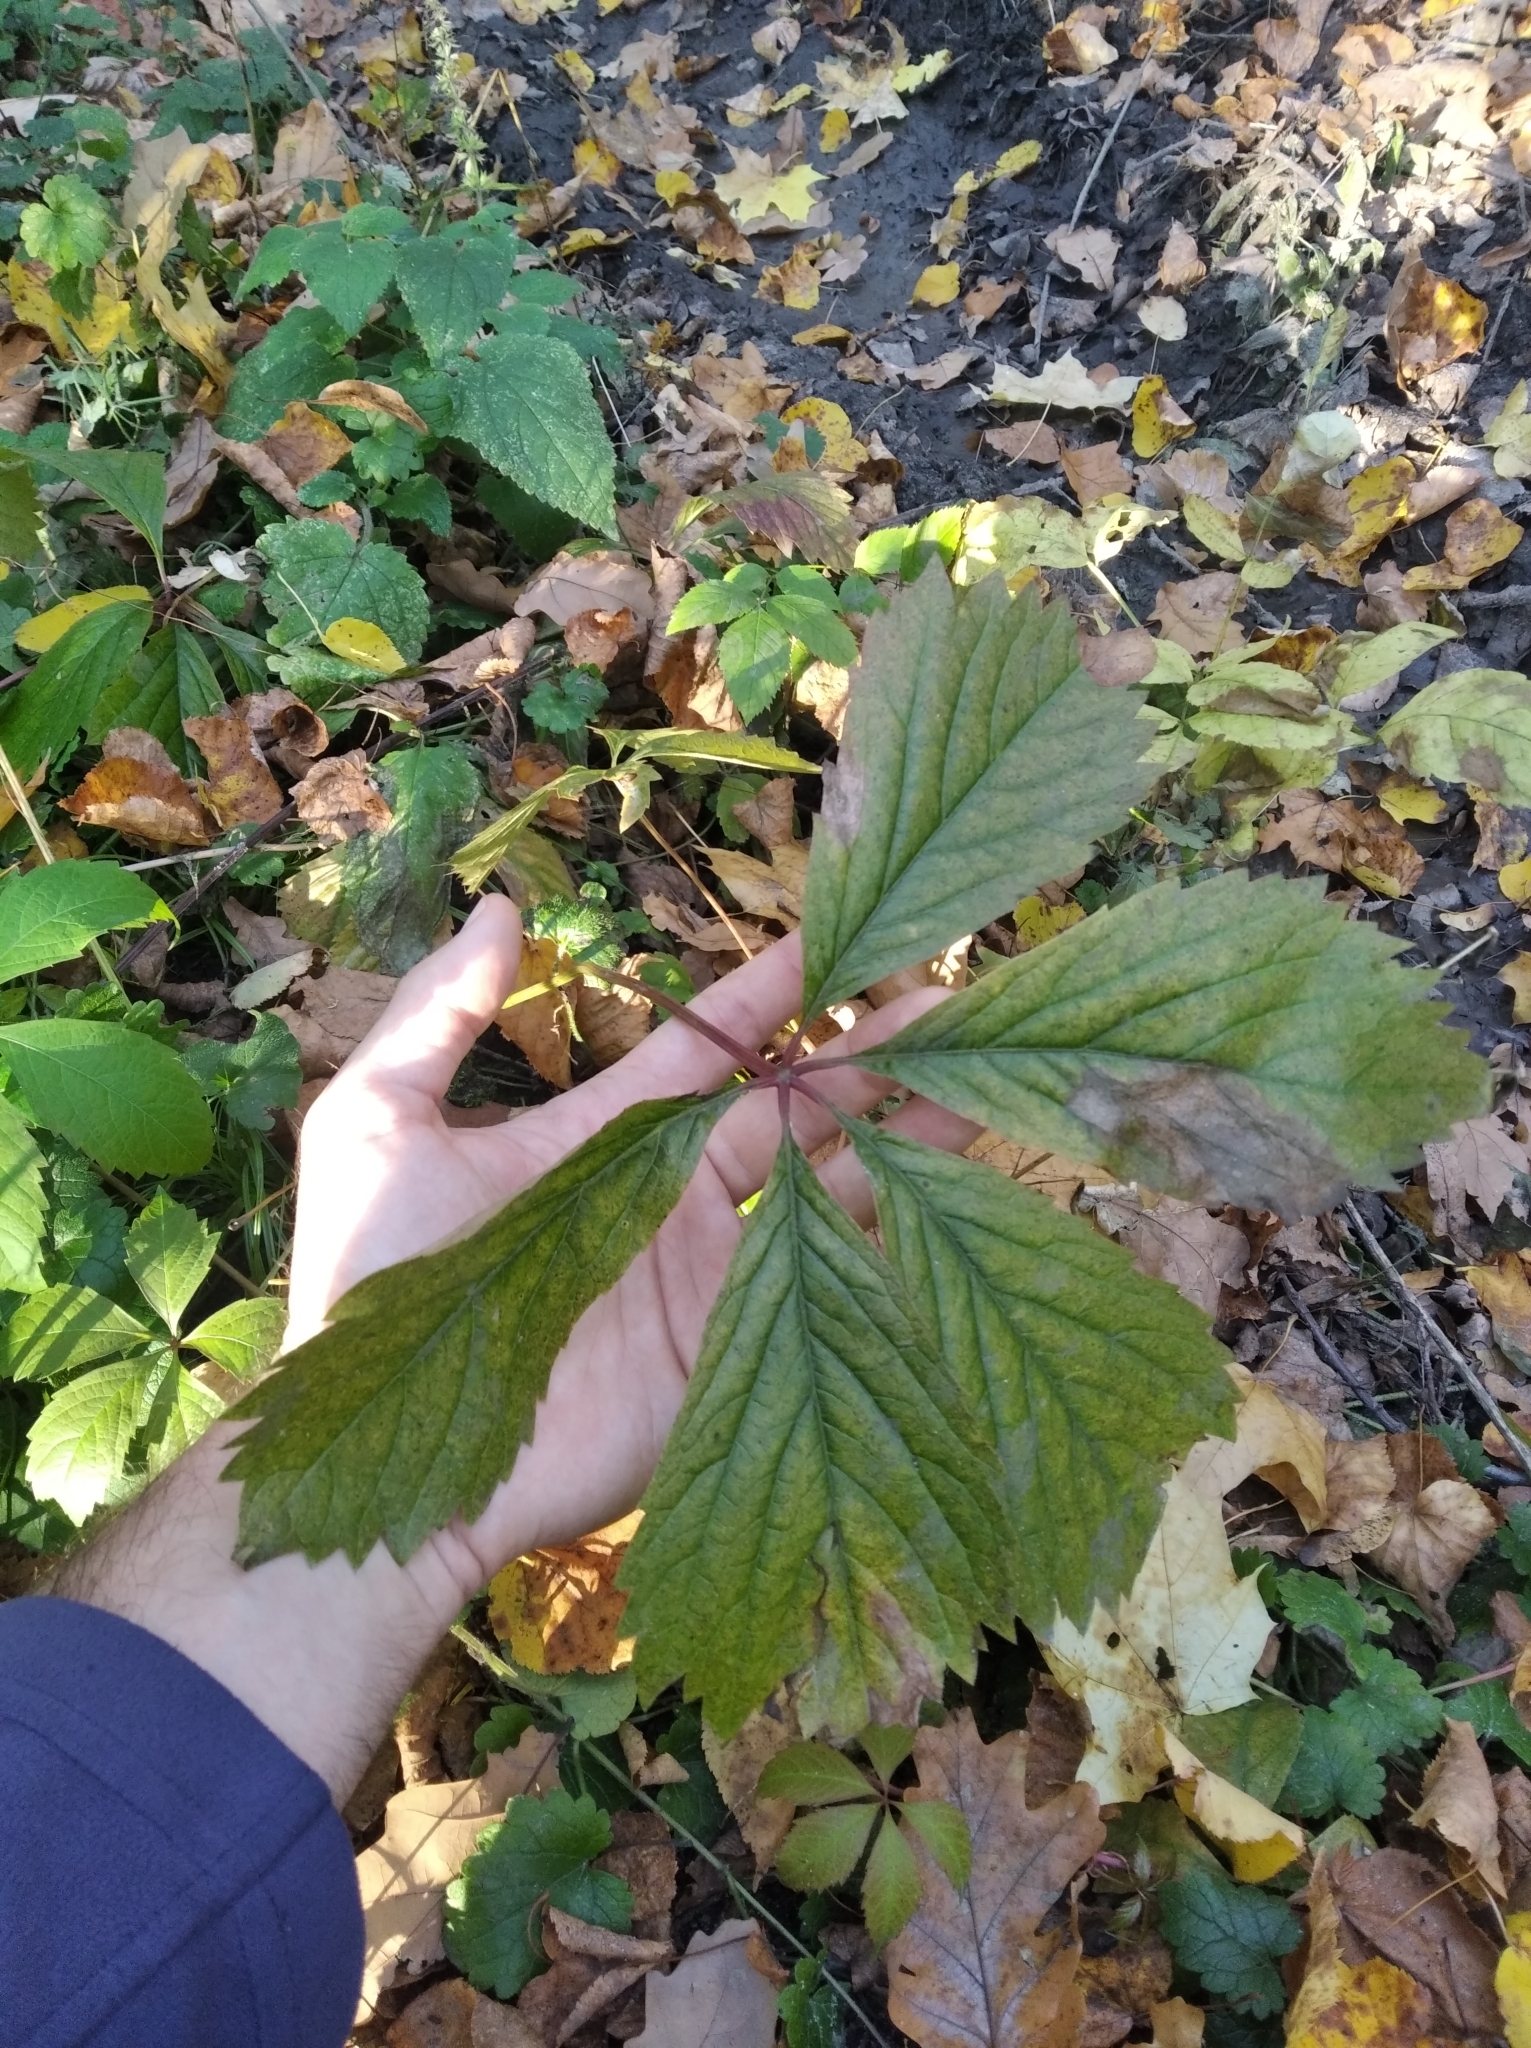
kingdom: Plantae
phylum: Tracheophyta
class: Magnoliopsida
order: Vitales
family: Vitaceae
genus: Parthenocissus
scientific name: Parthenocissus inserta
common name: False virginia-creeper
